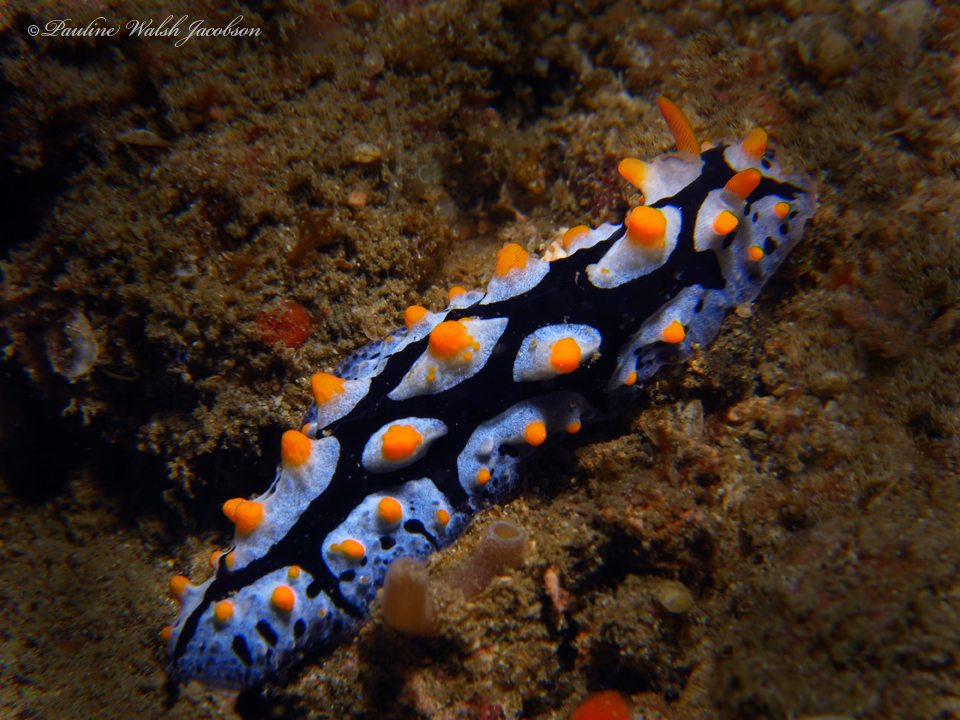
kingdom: Animalia
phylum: Mollusca
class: Gastropoda
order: Nudibranchia
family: Phyllidiidae
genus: Phyllidia
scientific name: Phyllidia picta
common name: Black-rayed phyllidia
